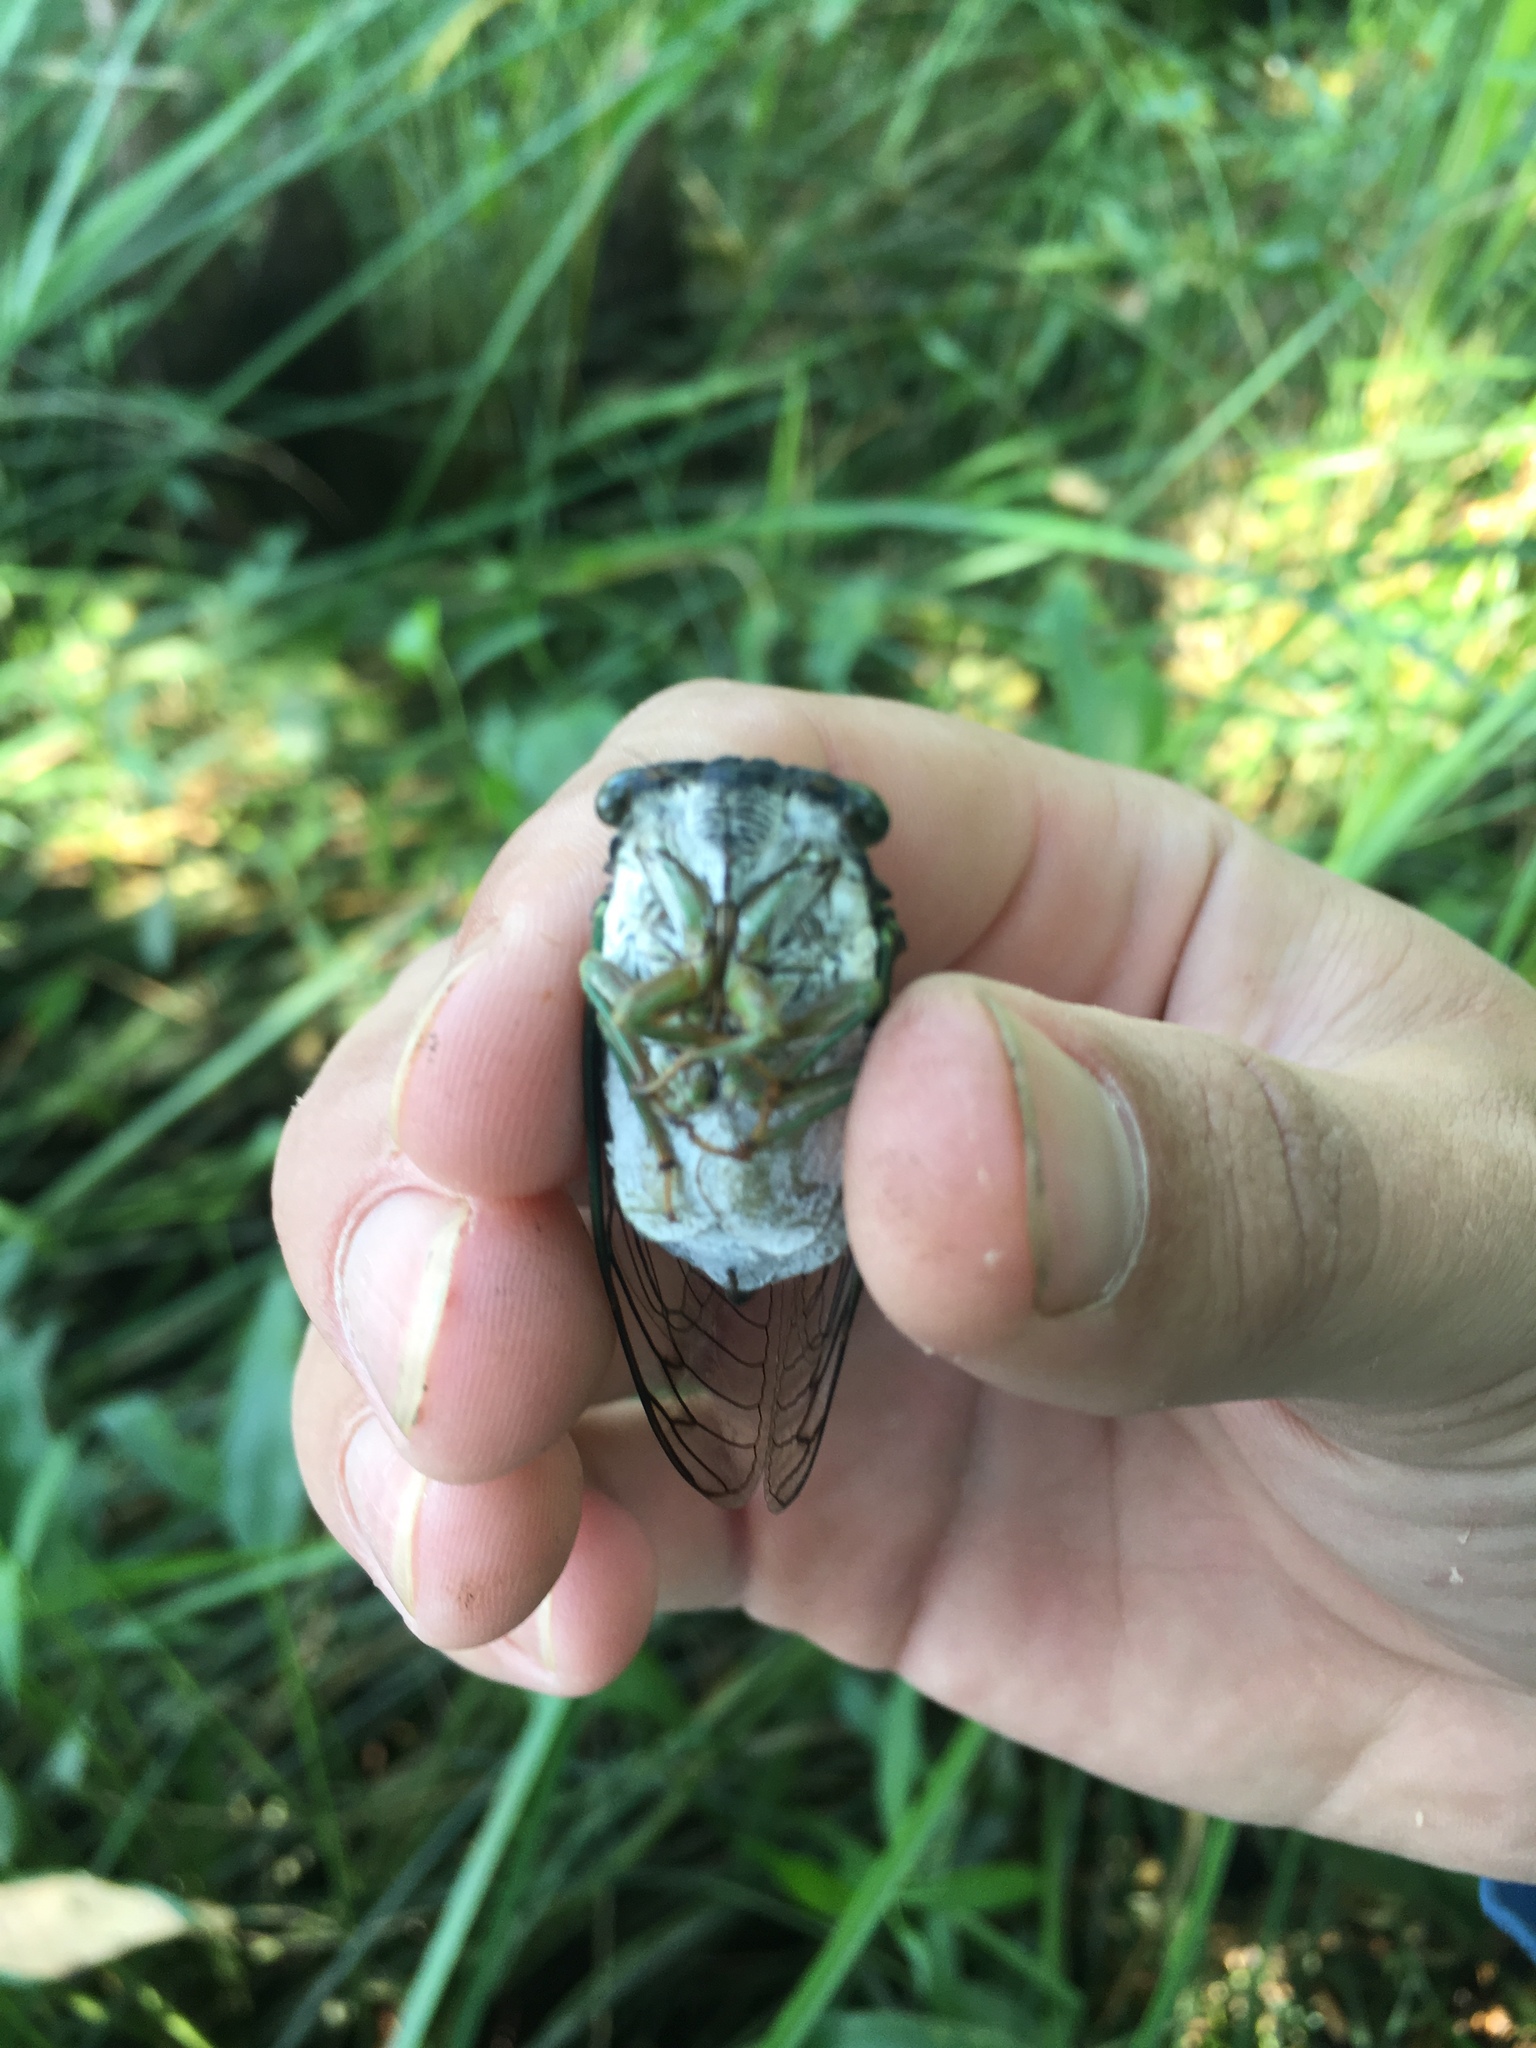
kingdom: Animalia
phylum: Arthropoda
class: Insecta
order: Hemiptera
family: Cicadidae
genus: Neotibicen
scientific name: Neotibicen tibicen
